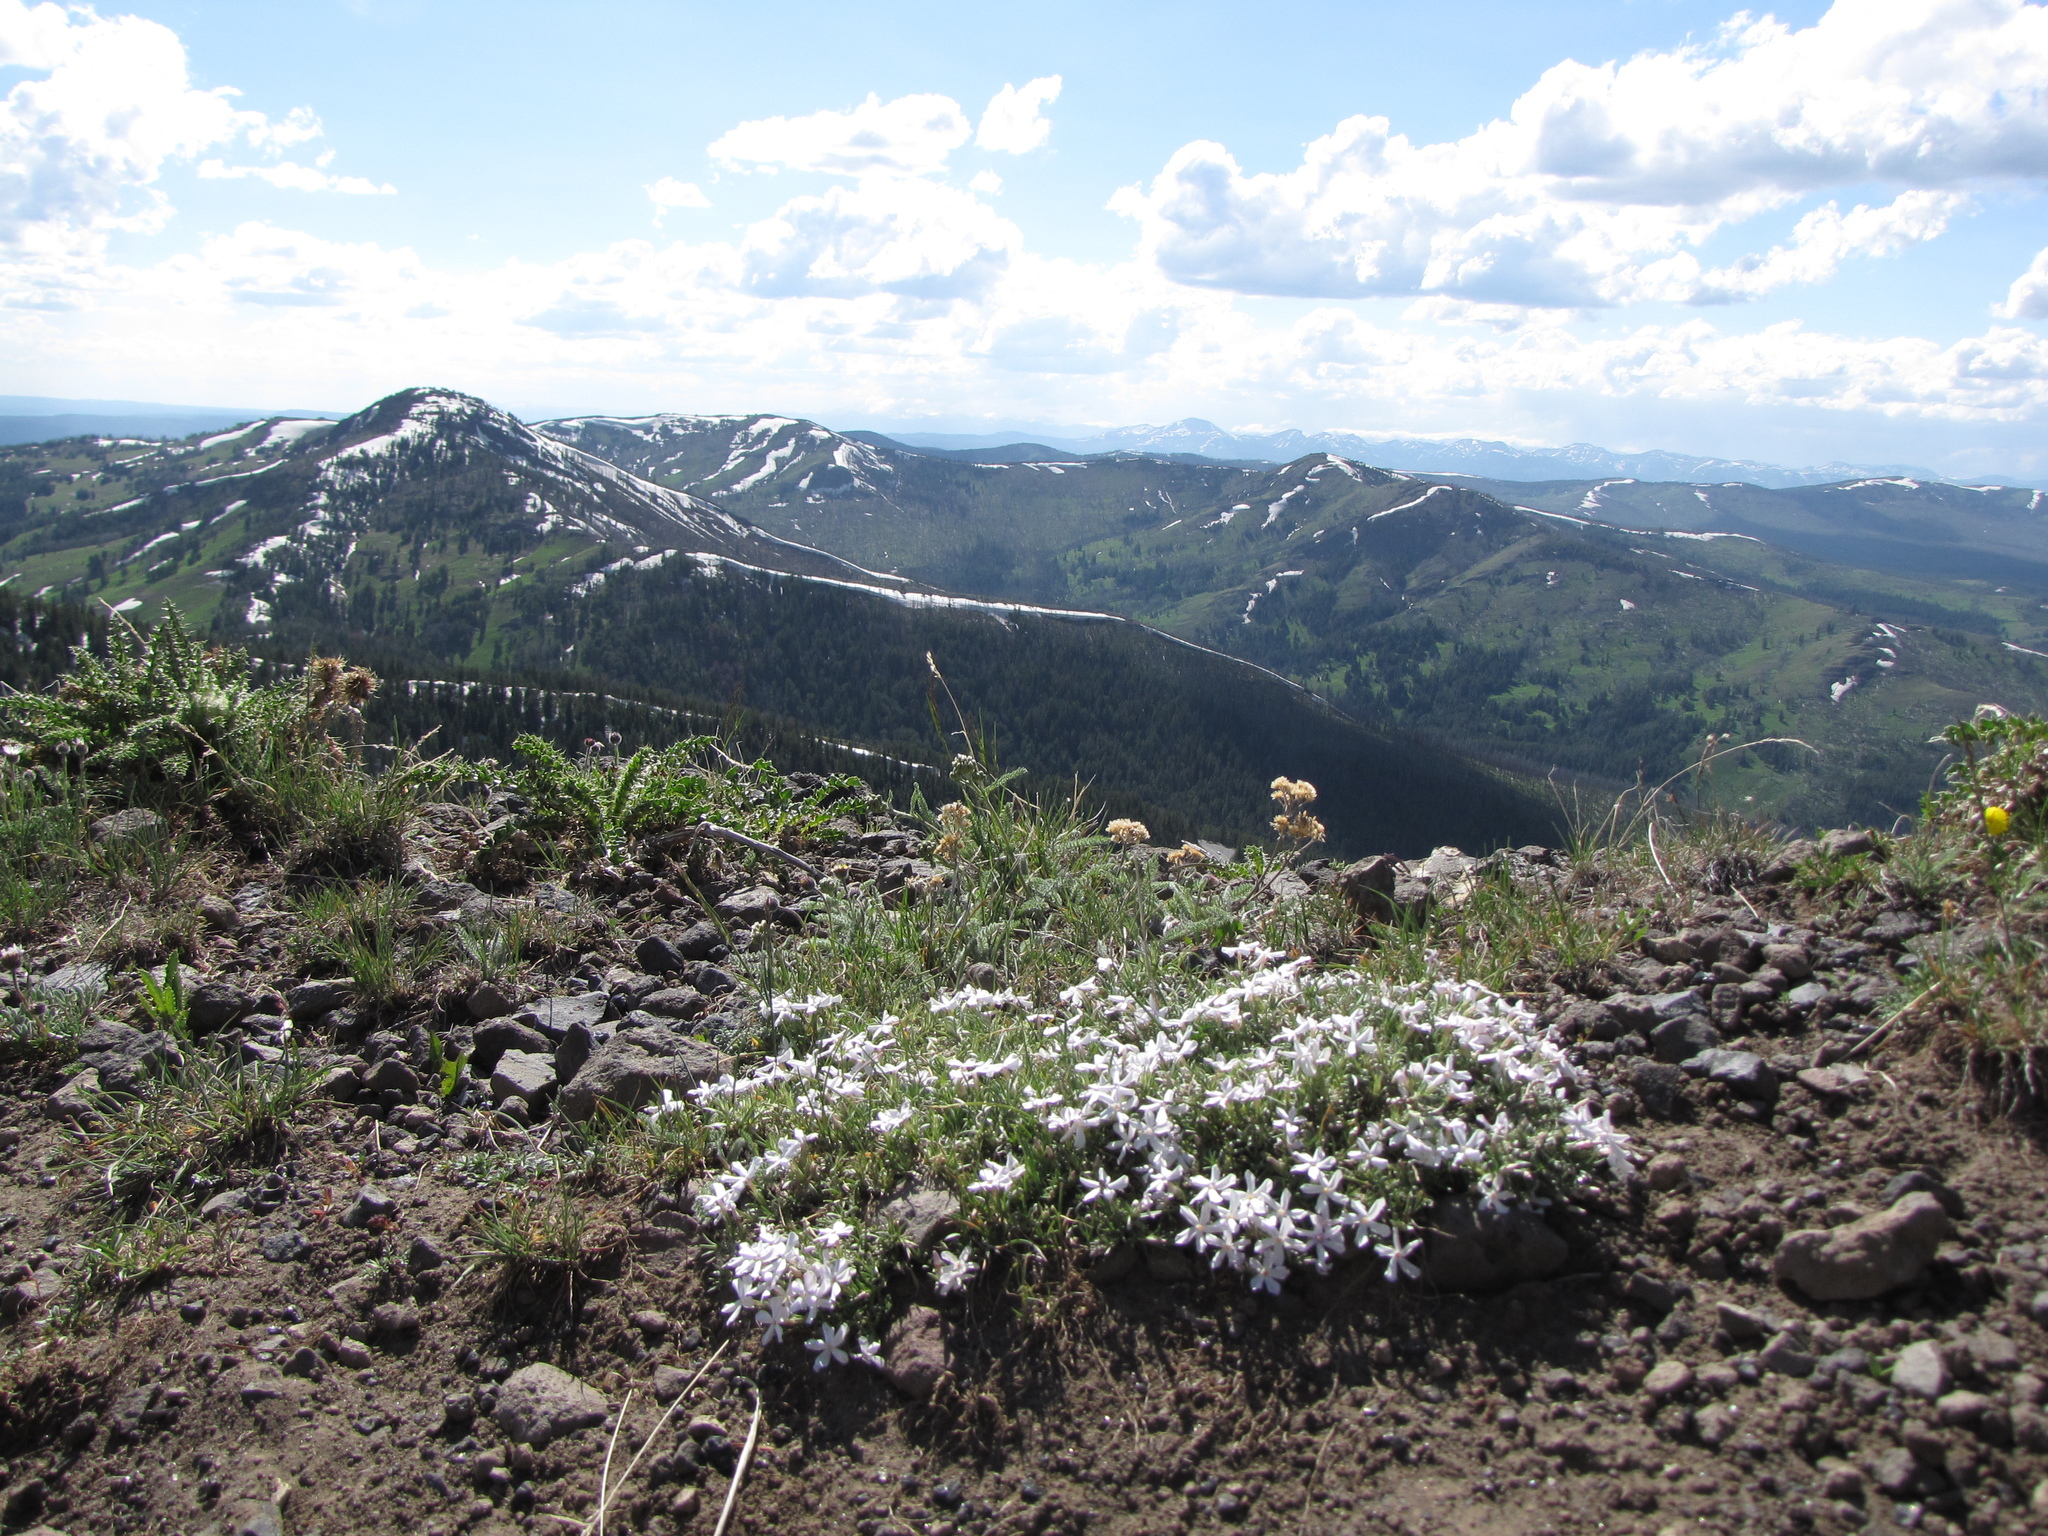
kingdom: Plantae
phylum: Tracheophyta
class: Magnoliopsida
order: Ericales
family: Polemoniaceae
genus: Phlox
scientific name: Phlox multiflora
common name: Rocky mountain phlox
